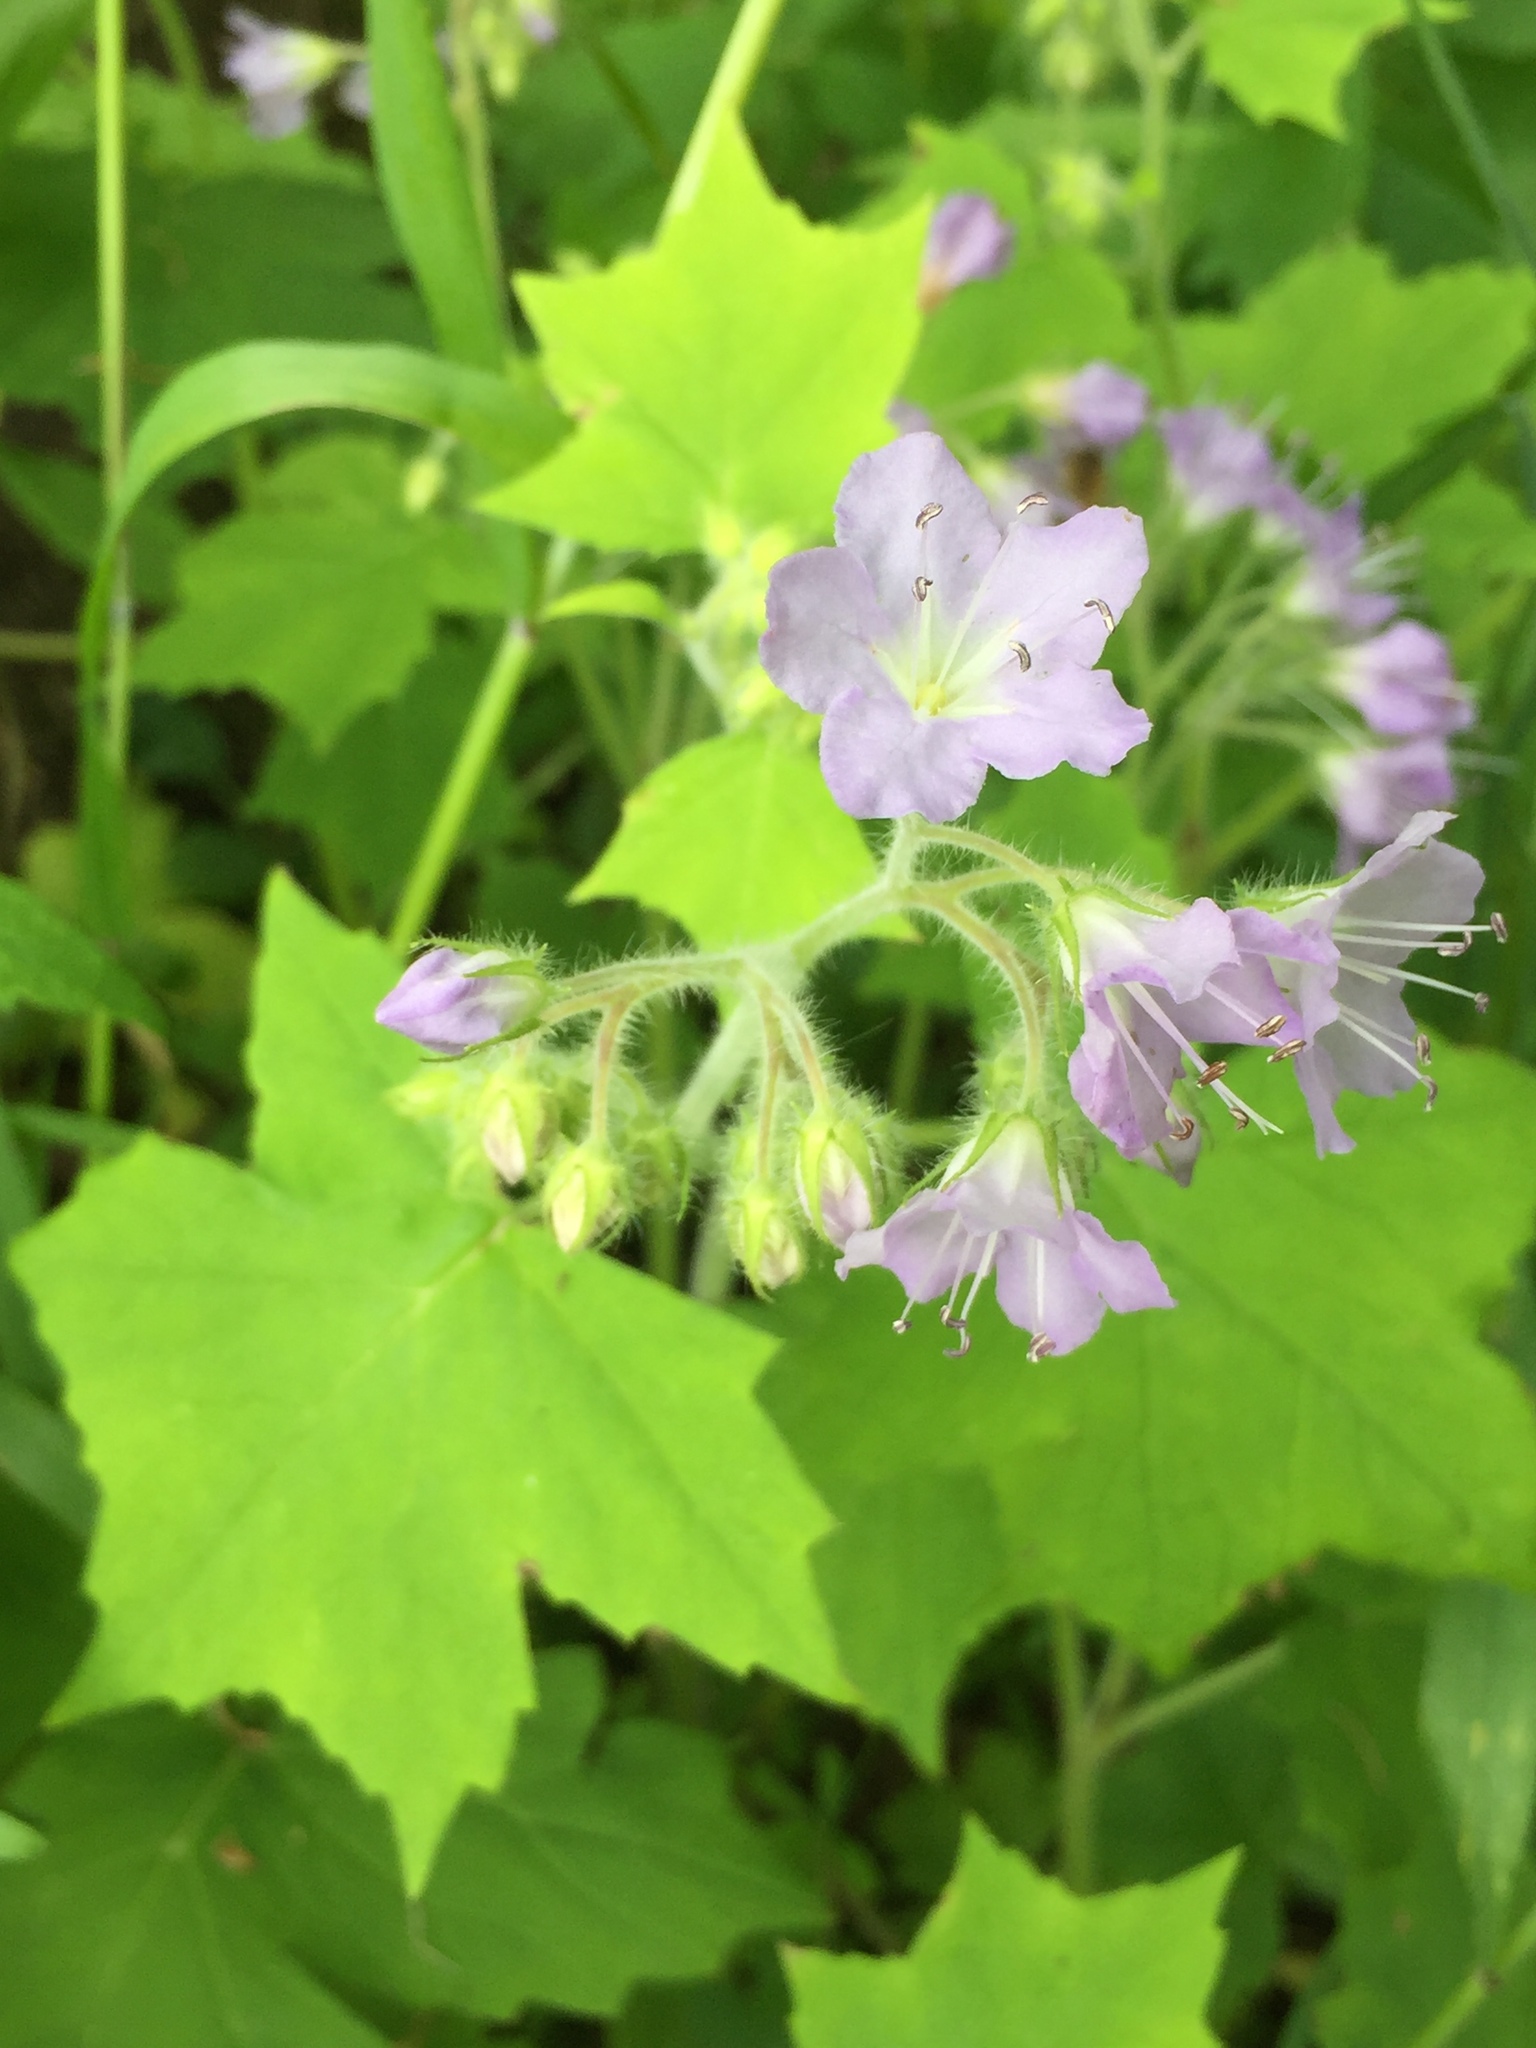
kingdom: Plantae
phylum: Tracheophyta
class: Magnoliopsida
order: Boraginales
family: Hydrophyllaceae
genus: Hydrophyllum
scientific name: Hydrophyllum appendiculatum
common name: Appendaged waterleaf
